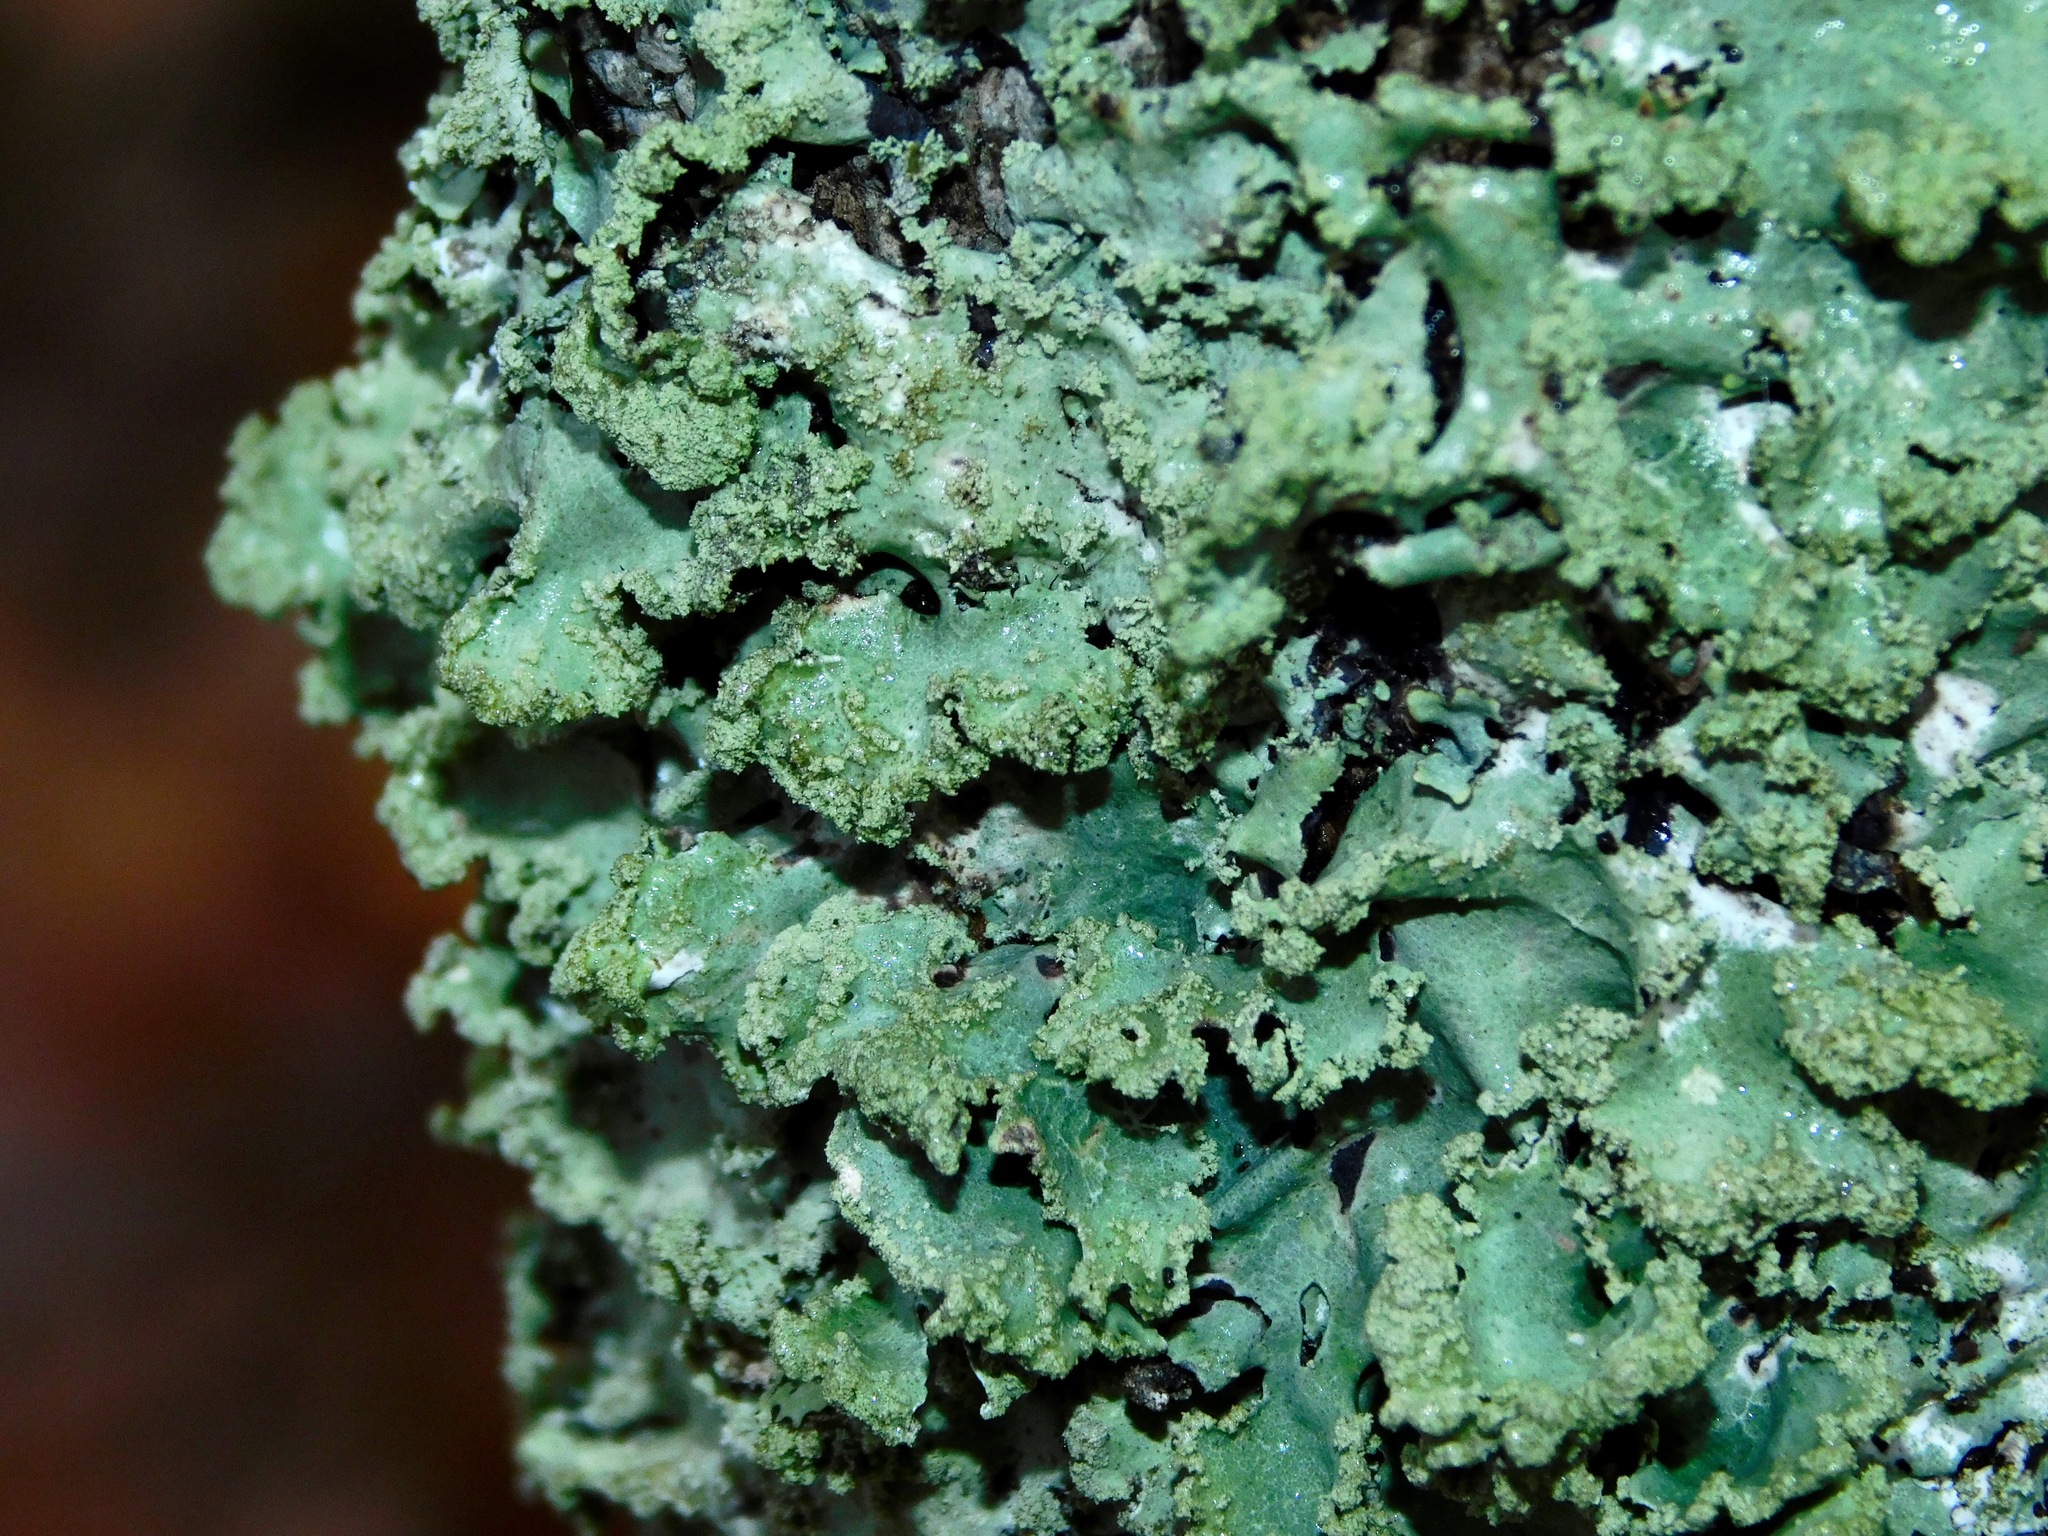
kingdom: Fungi
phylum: Ascomycota
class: Lecanoromycetes
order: Lecanorales
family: Parmeliaceae
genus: Parmotrema
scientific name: Parmotrema simulans
